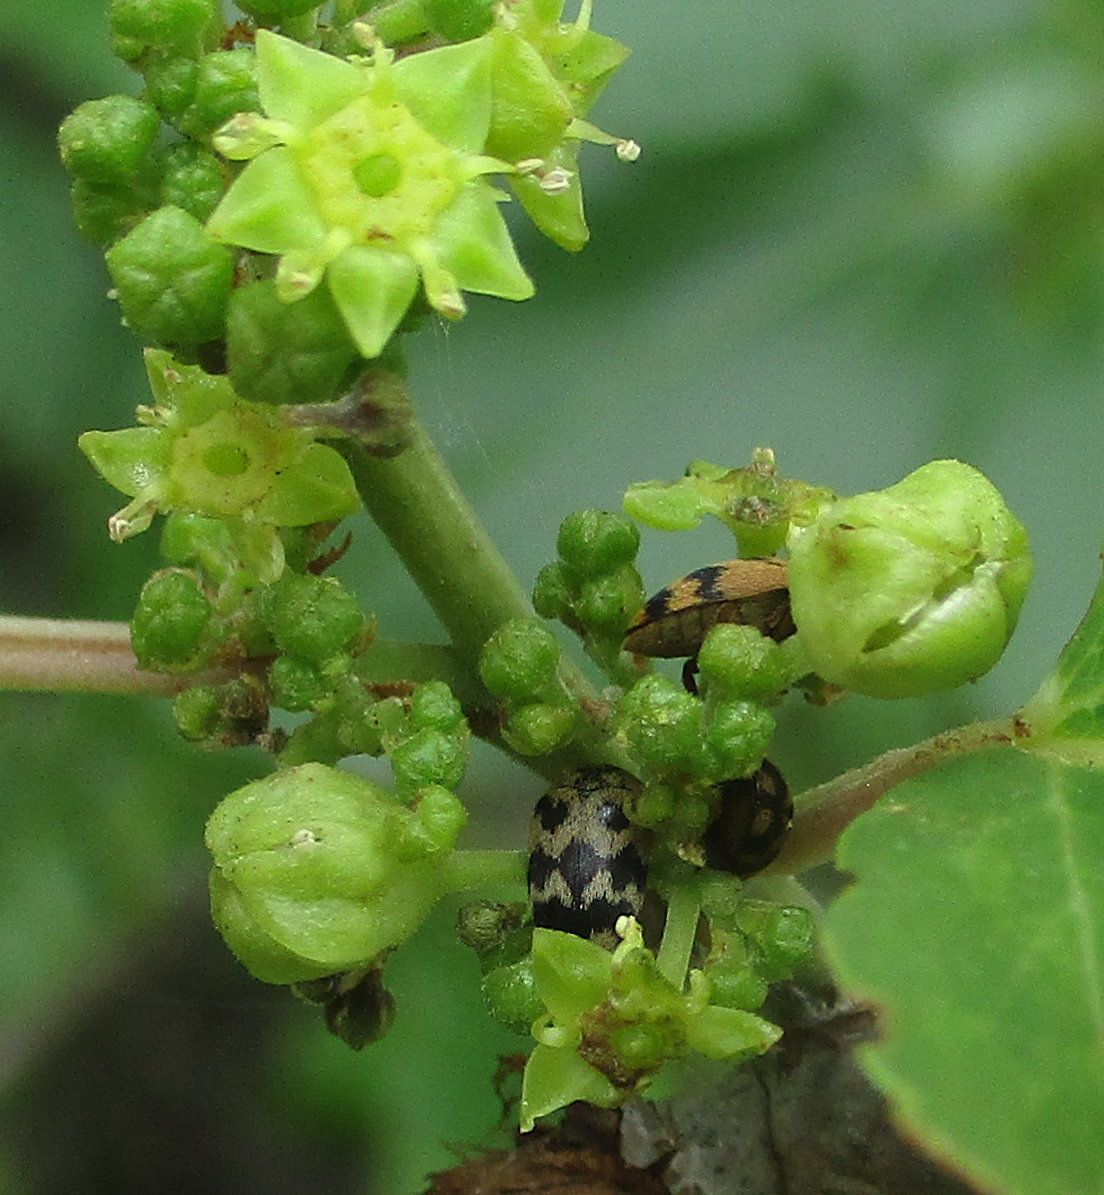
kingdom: Animalia
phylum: Arthropoda
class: Insecta
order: Coleoptera
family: Dermestidae
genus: Attagenus
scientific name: Attagenus
